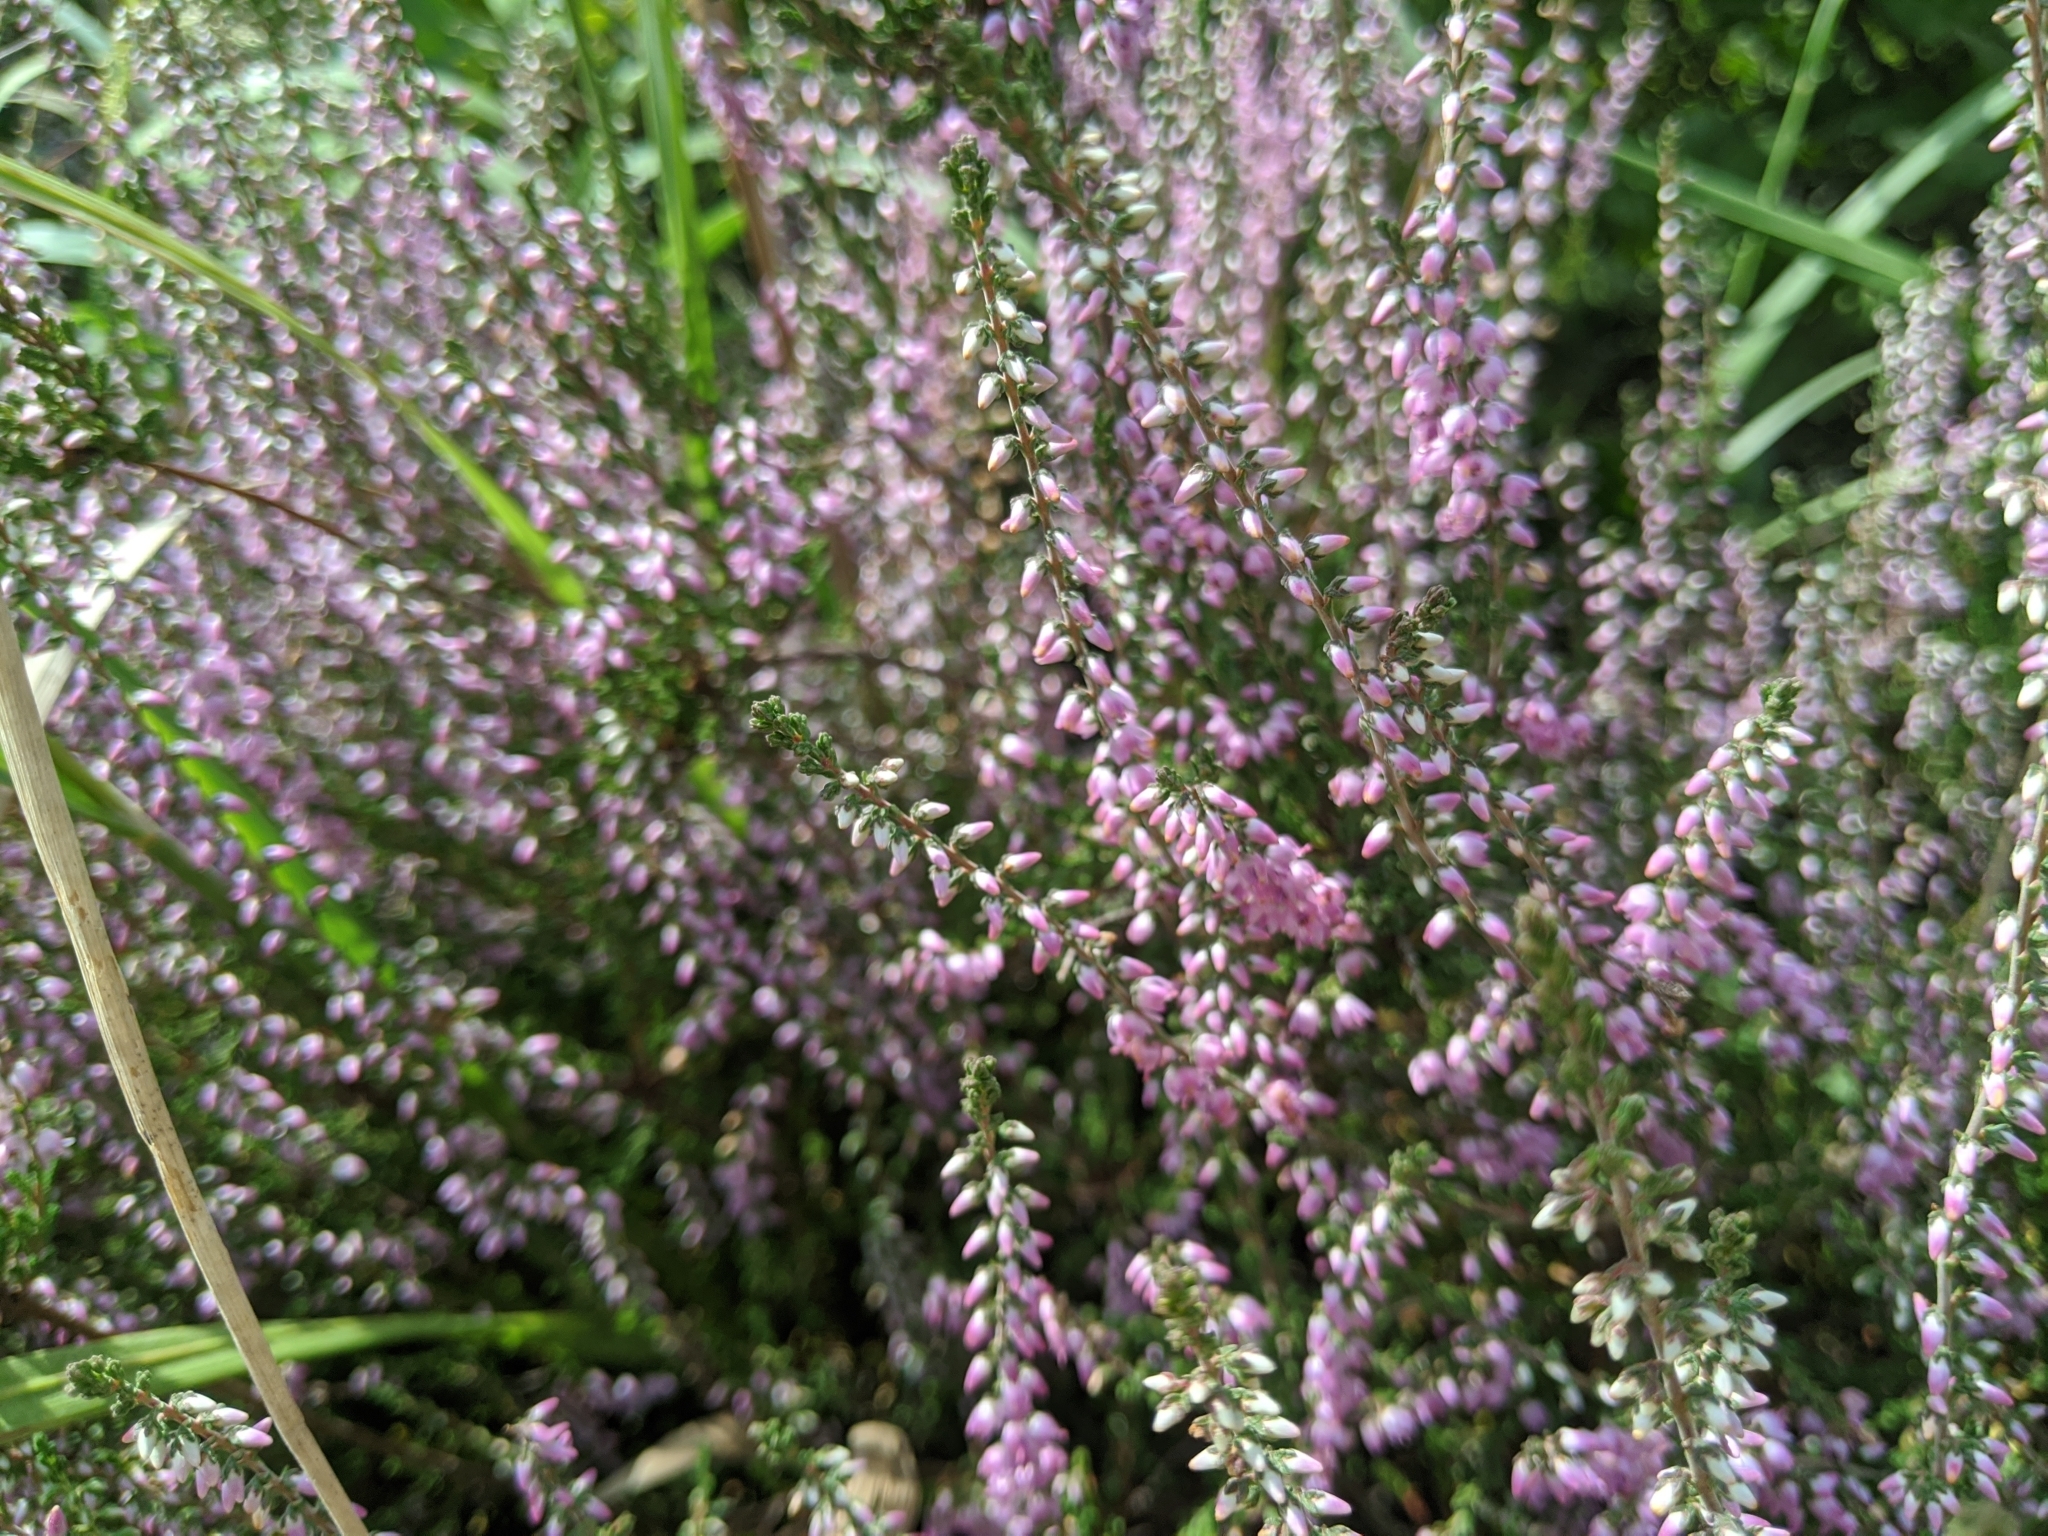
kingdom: Plantae
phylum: Tracheophyta
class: Magnoliopsida
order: Ericales
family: Ericaceae
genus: Calluna
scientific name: Calluna vulgaris
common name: Heather
